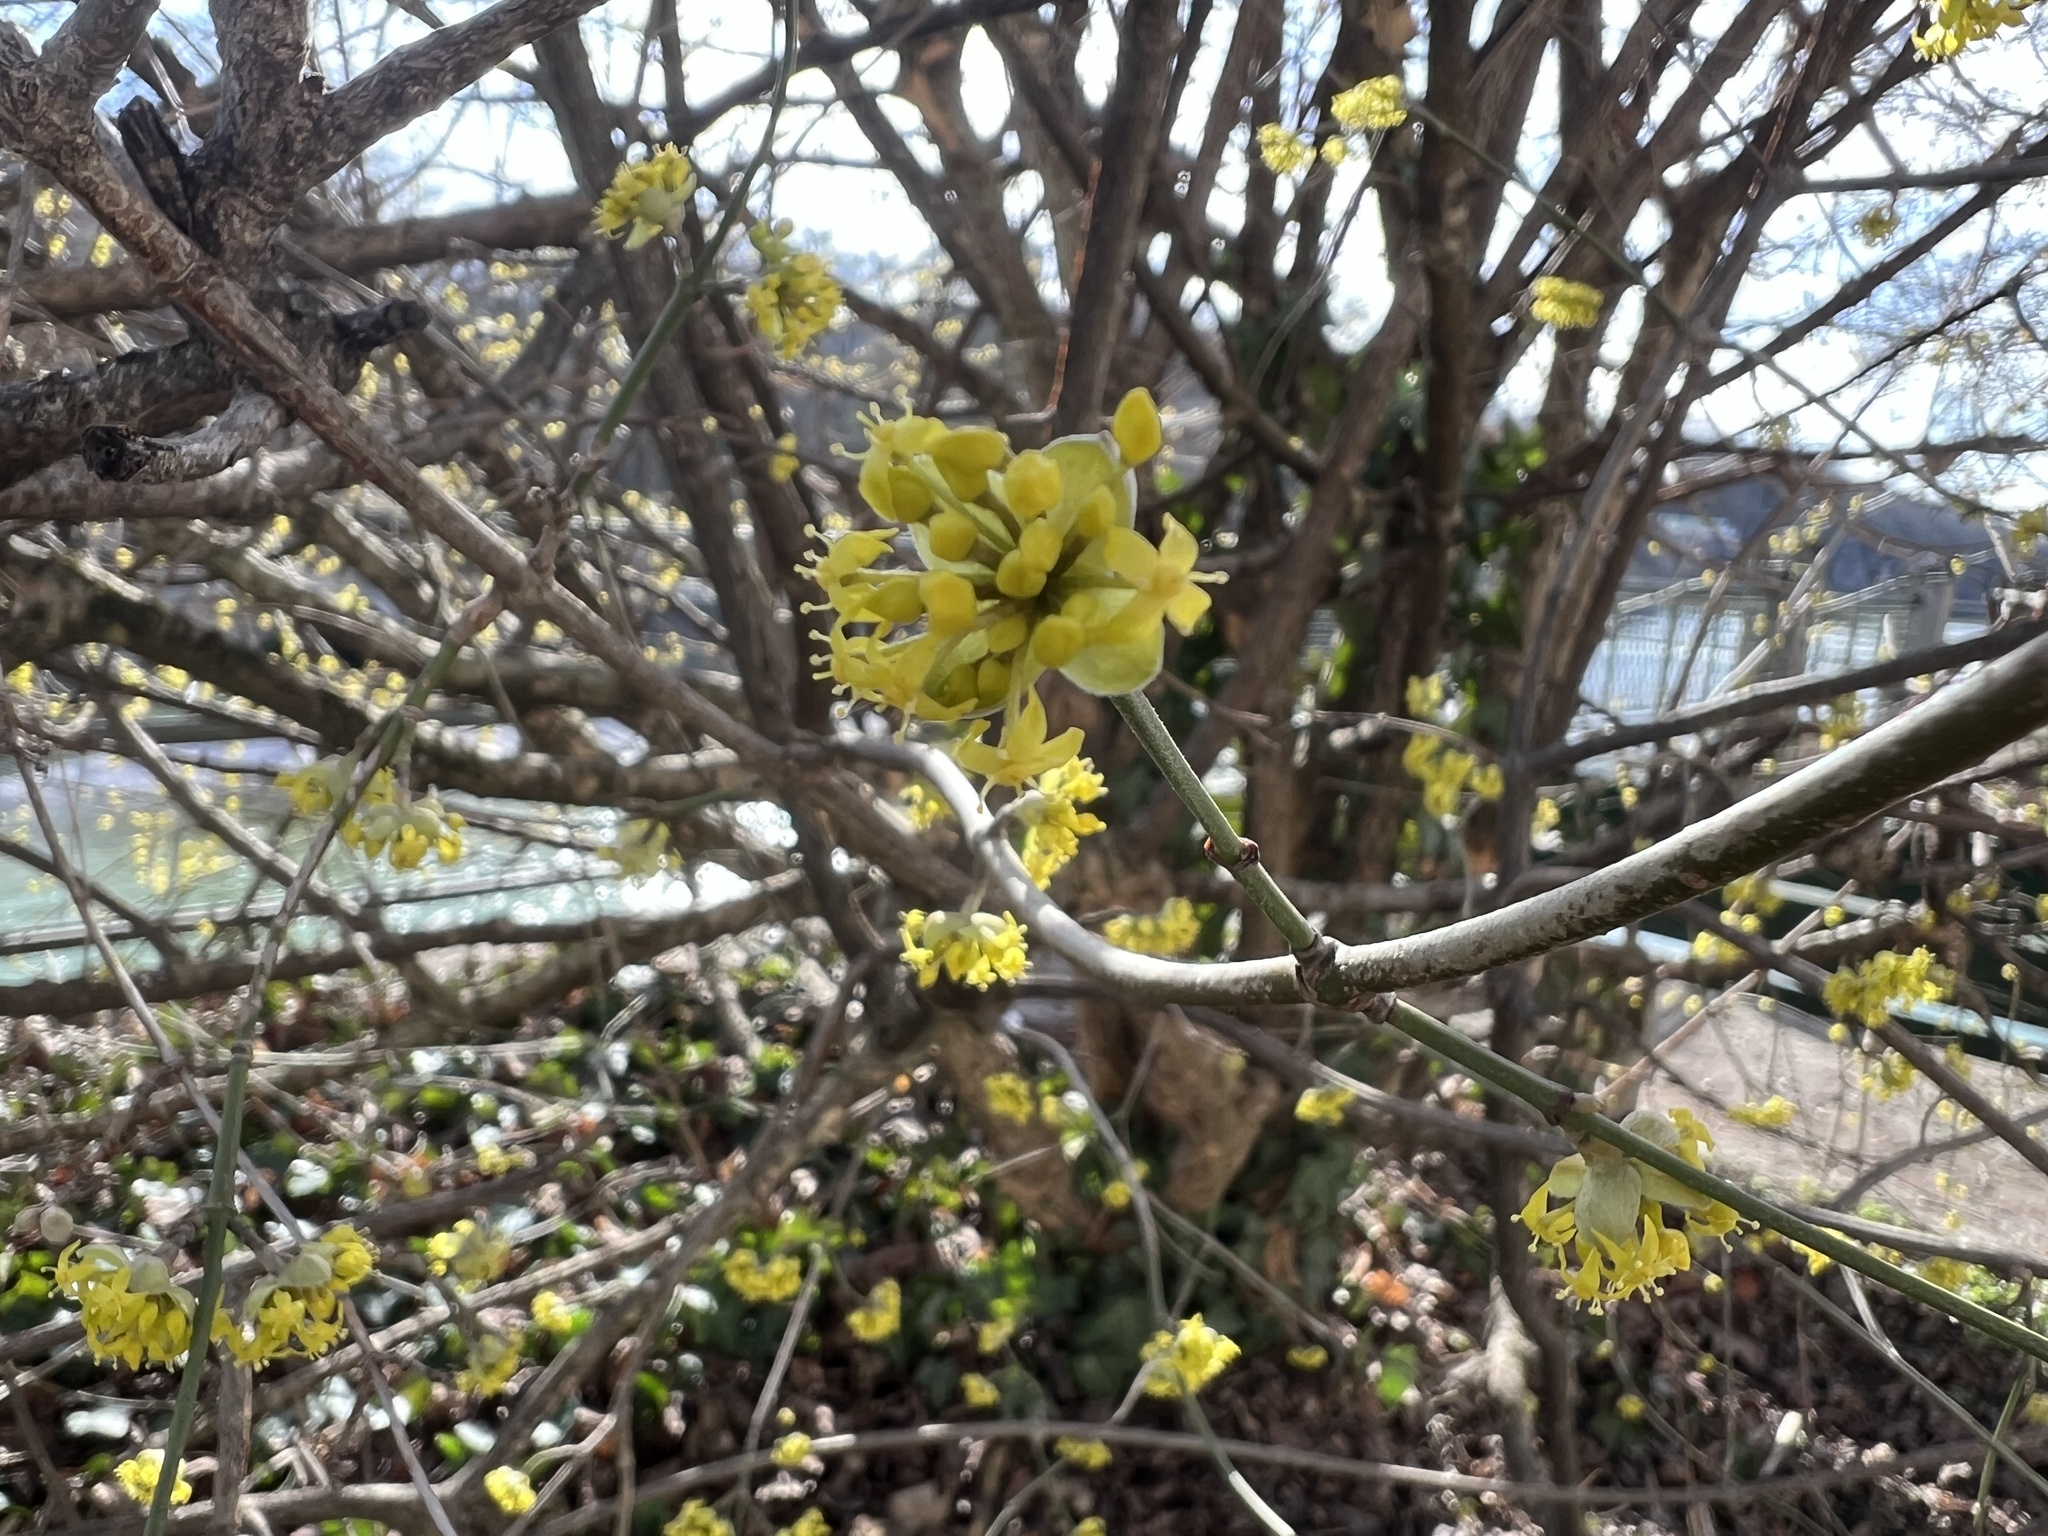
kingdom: Plantae
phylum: Tracheophyta
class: Magnoliopsida
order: Cornales
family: Cornaceae
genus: Cornus
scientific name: Cornus mas
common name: Cornelian-cherry
